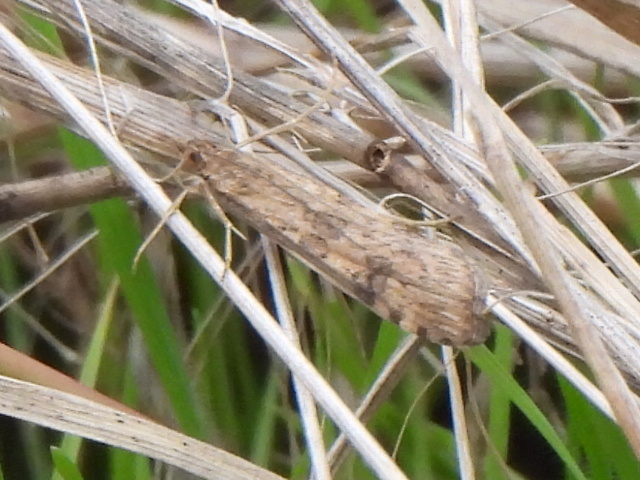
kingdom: Animalia
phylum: Arthropoda
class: Insecta
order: Lepidoptera
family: Crambidae
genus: Nomophila
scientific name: Nomophila nearctica
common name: American rush veneer
